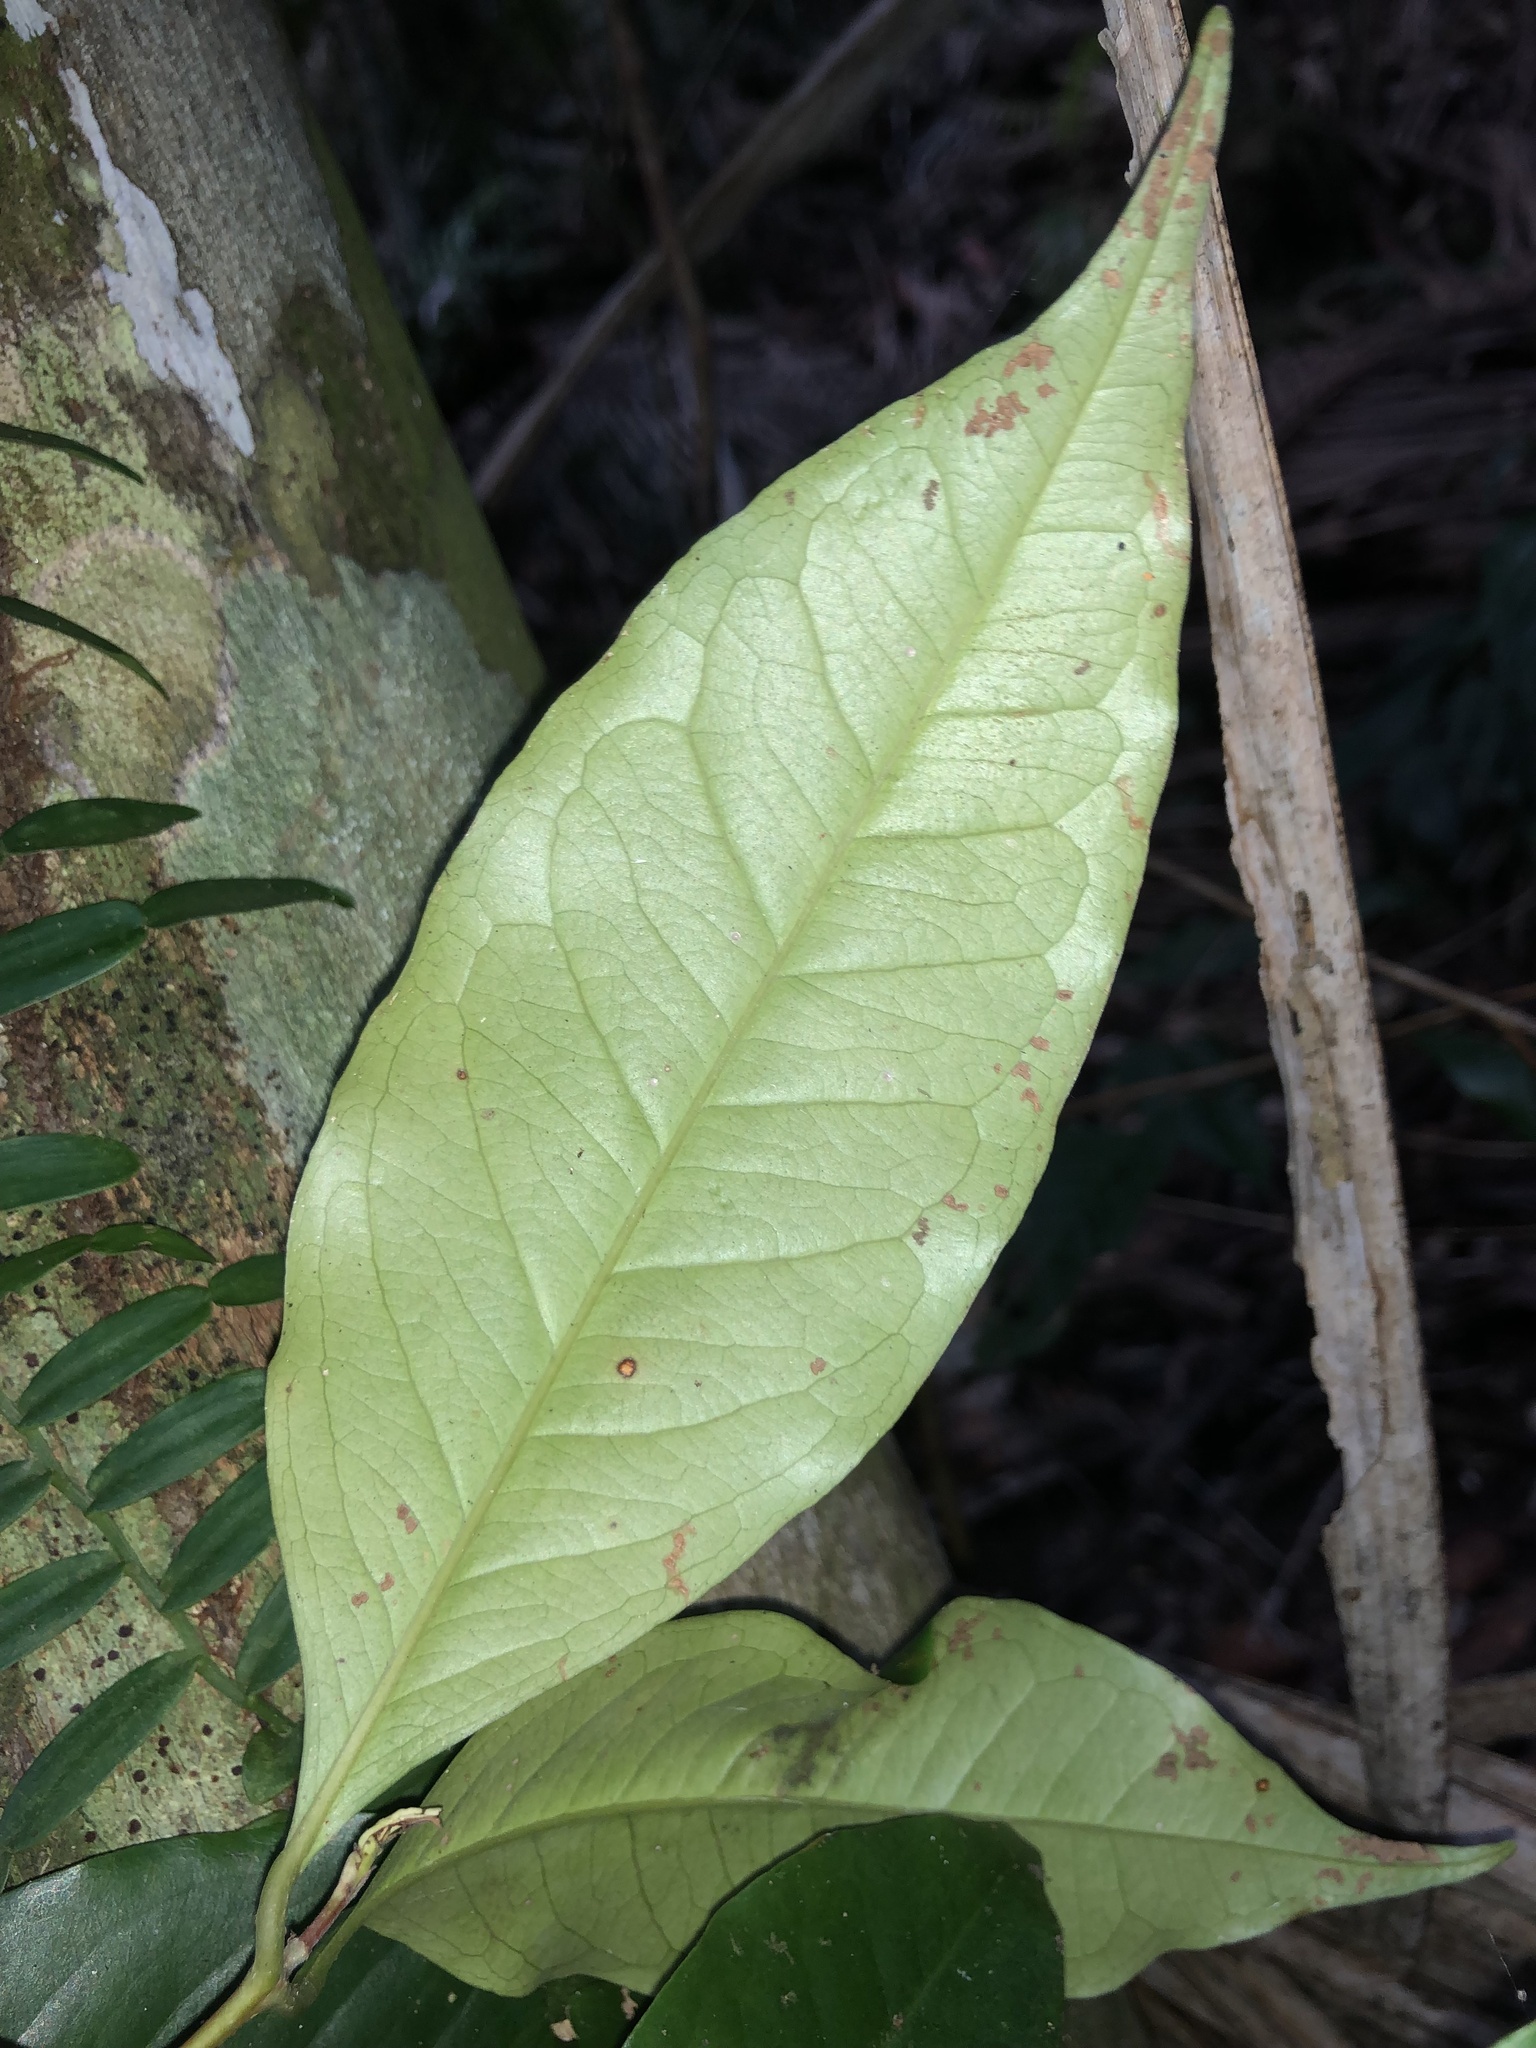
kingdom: Plantae
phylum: Tracheophyta
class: Magnoliopsida
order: Myrtales
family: Myrtaceae
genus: Syzygium
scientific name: Syzygium hodgkinsoniae
